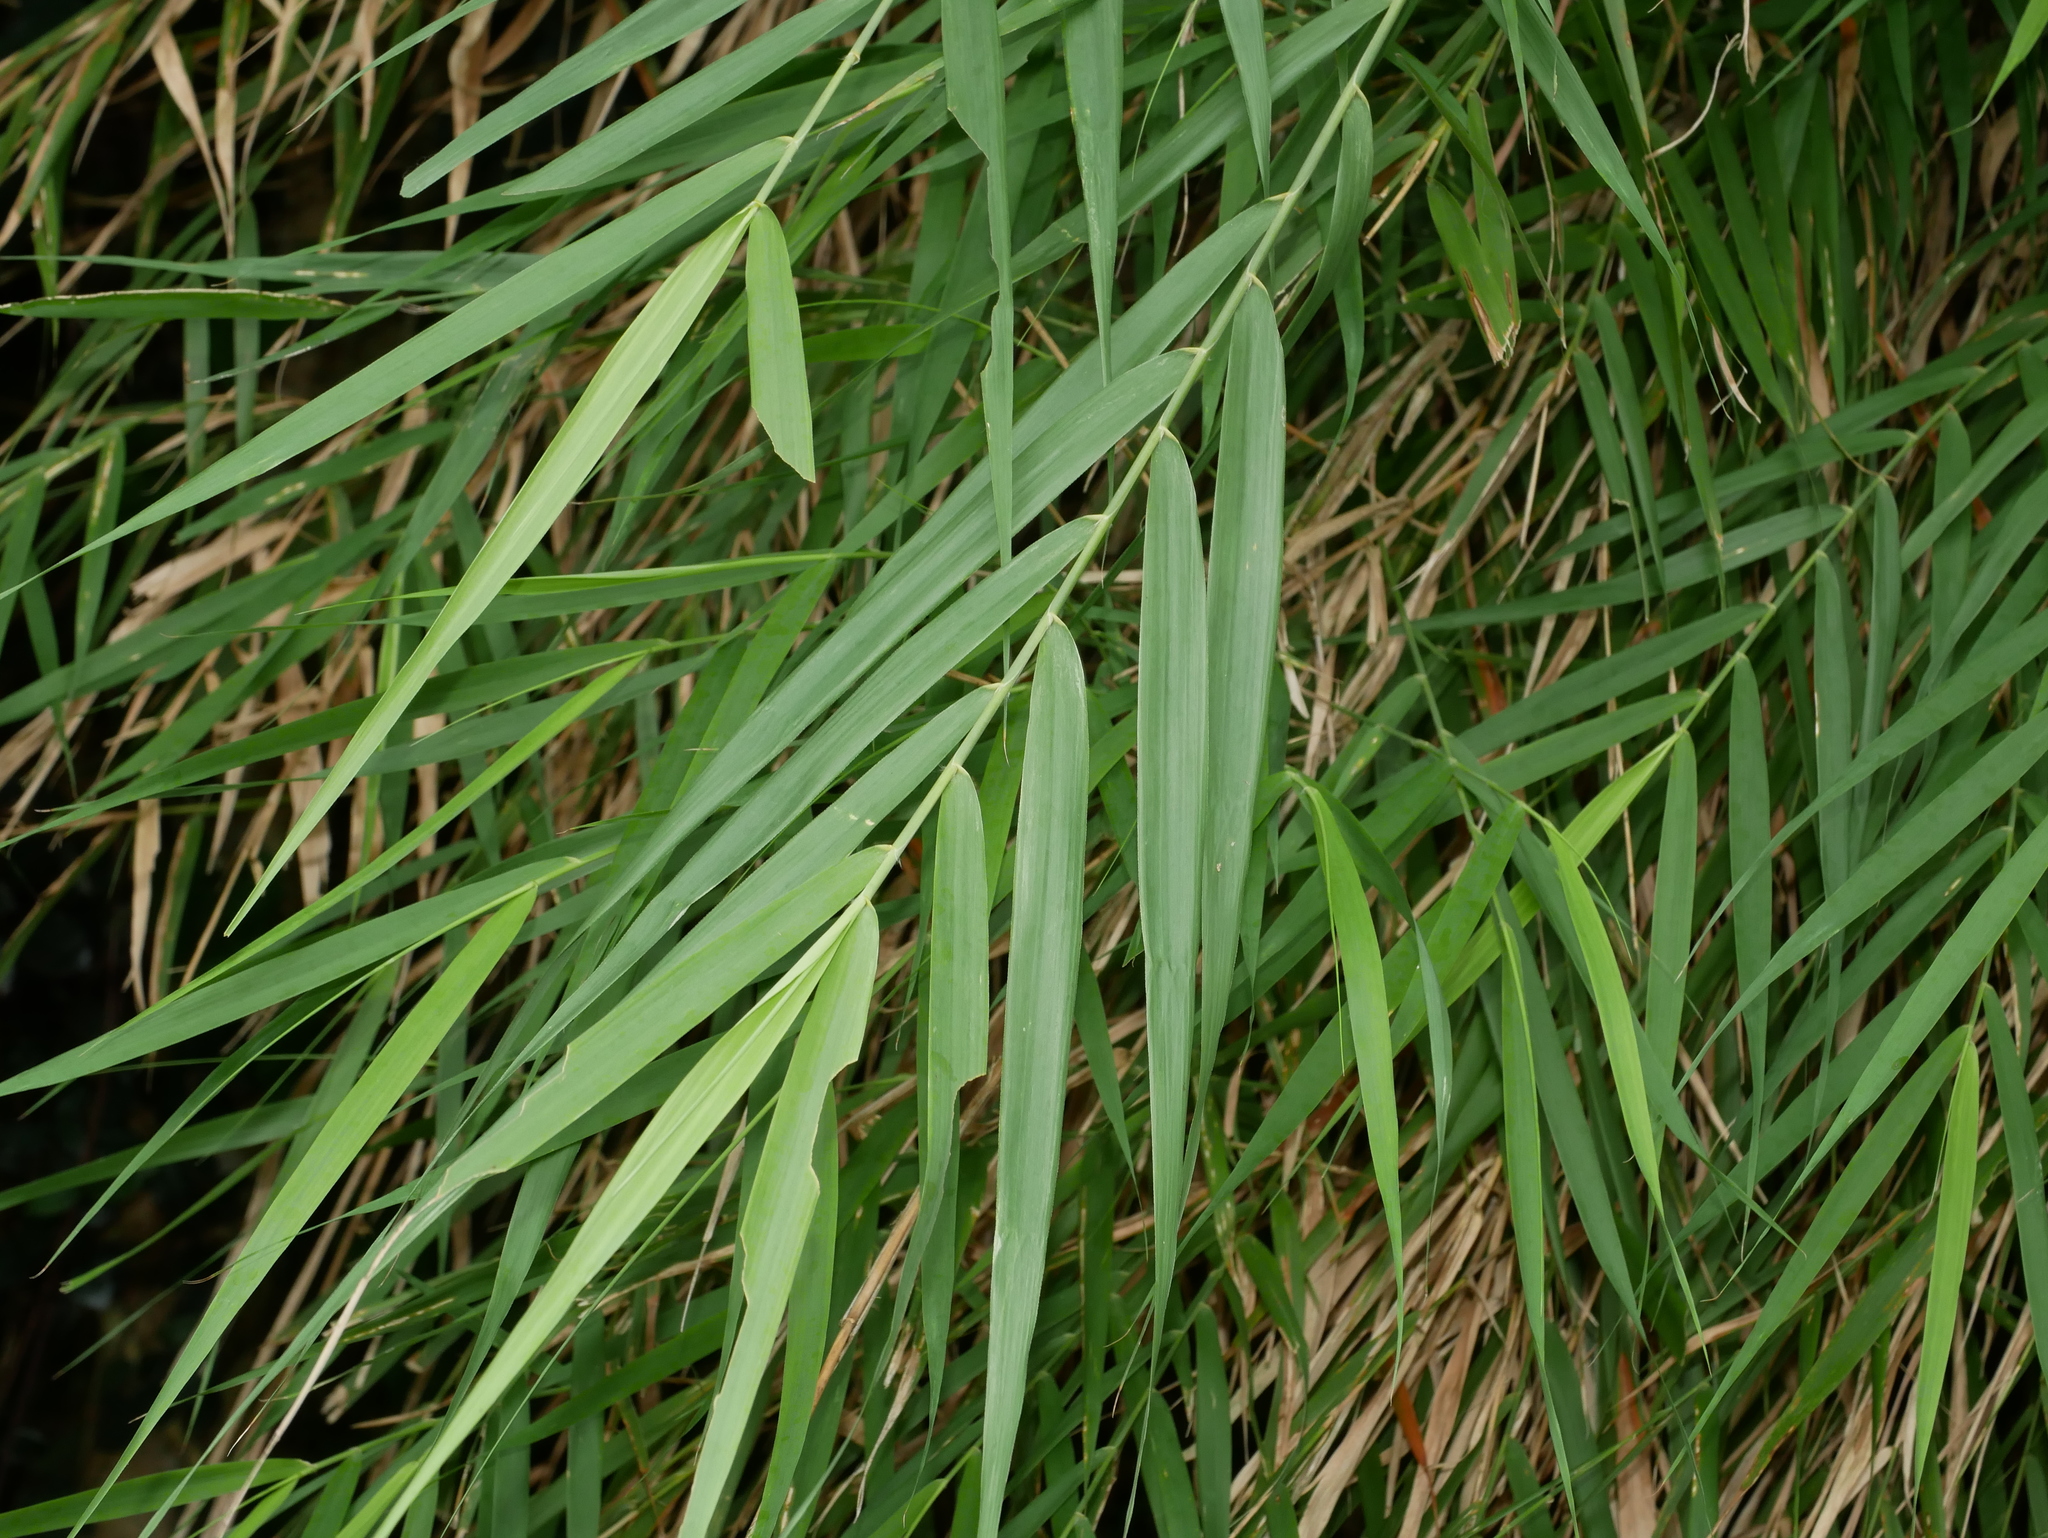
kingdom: Plantae
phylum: Tracheophyta
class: Liliopsida
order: Poales
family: Poaceae
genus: Arundo
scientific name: Arundo formosana
